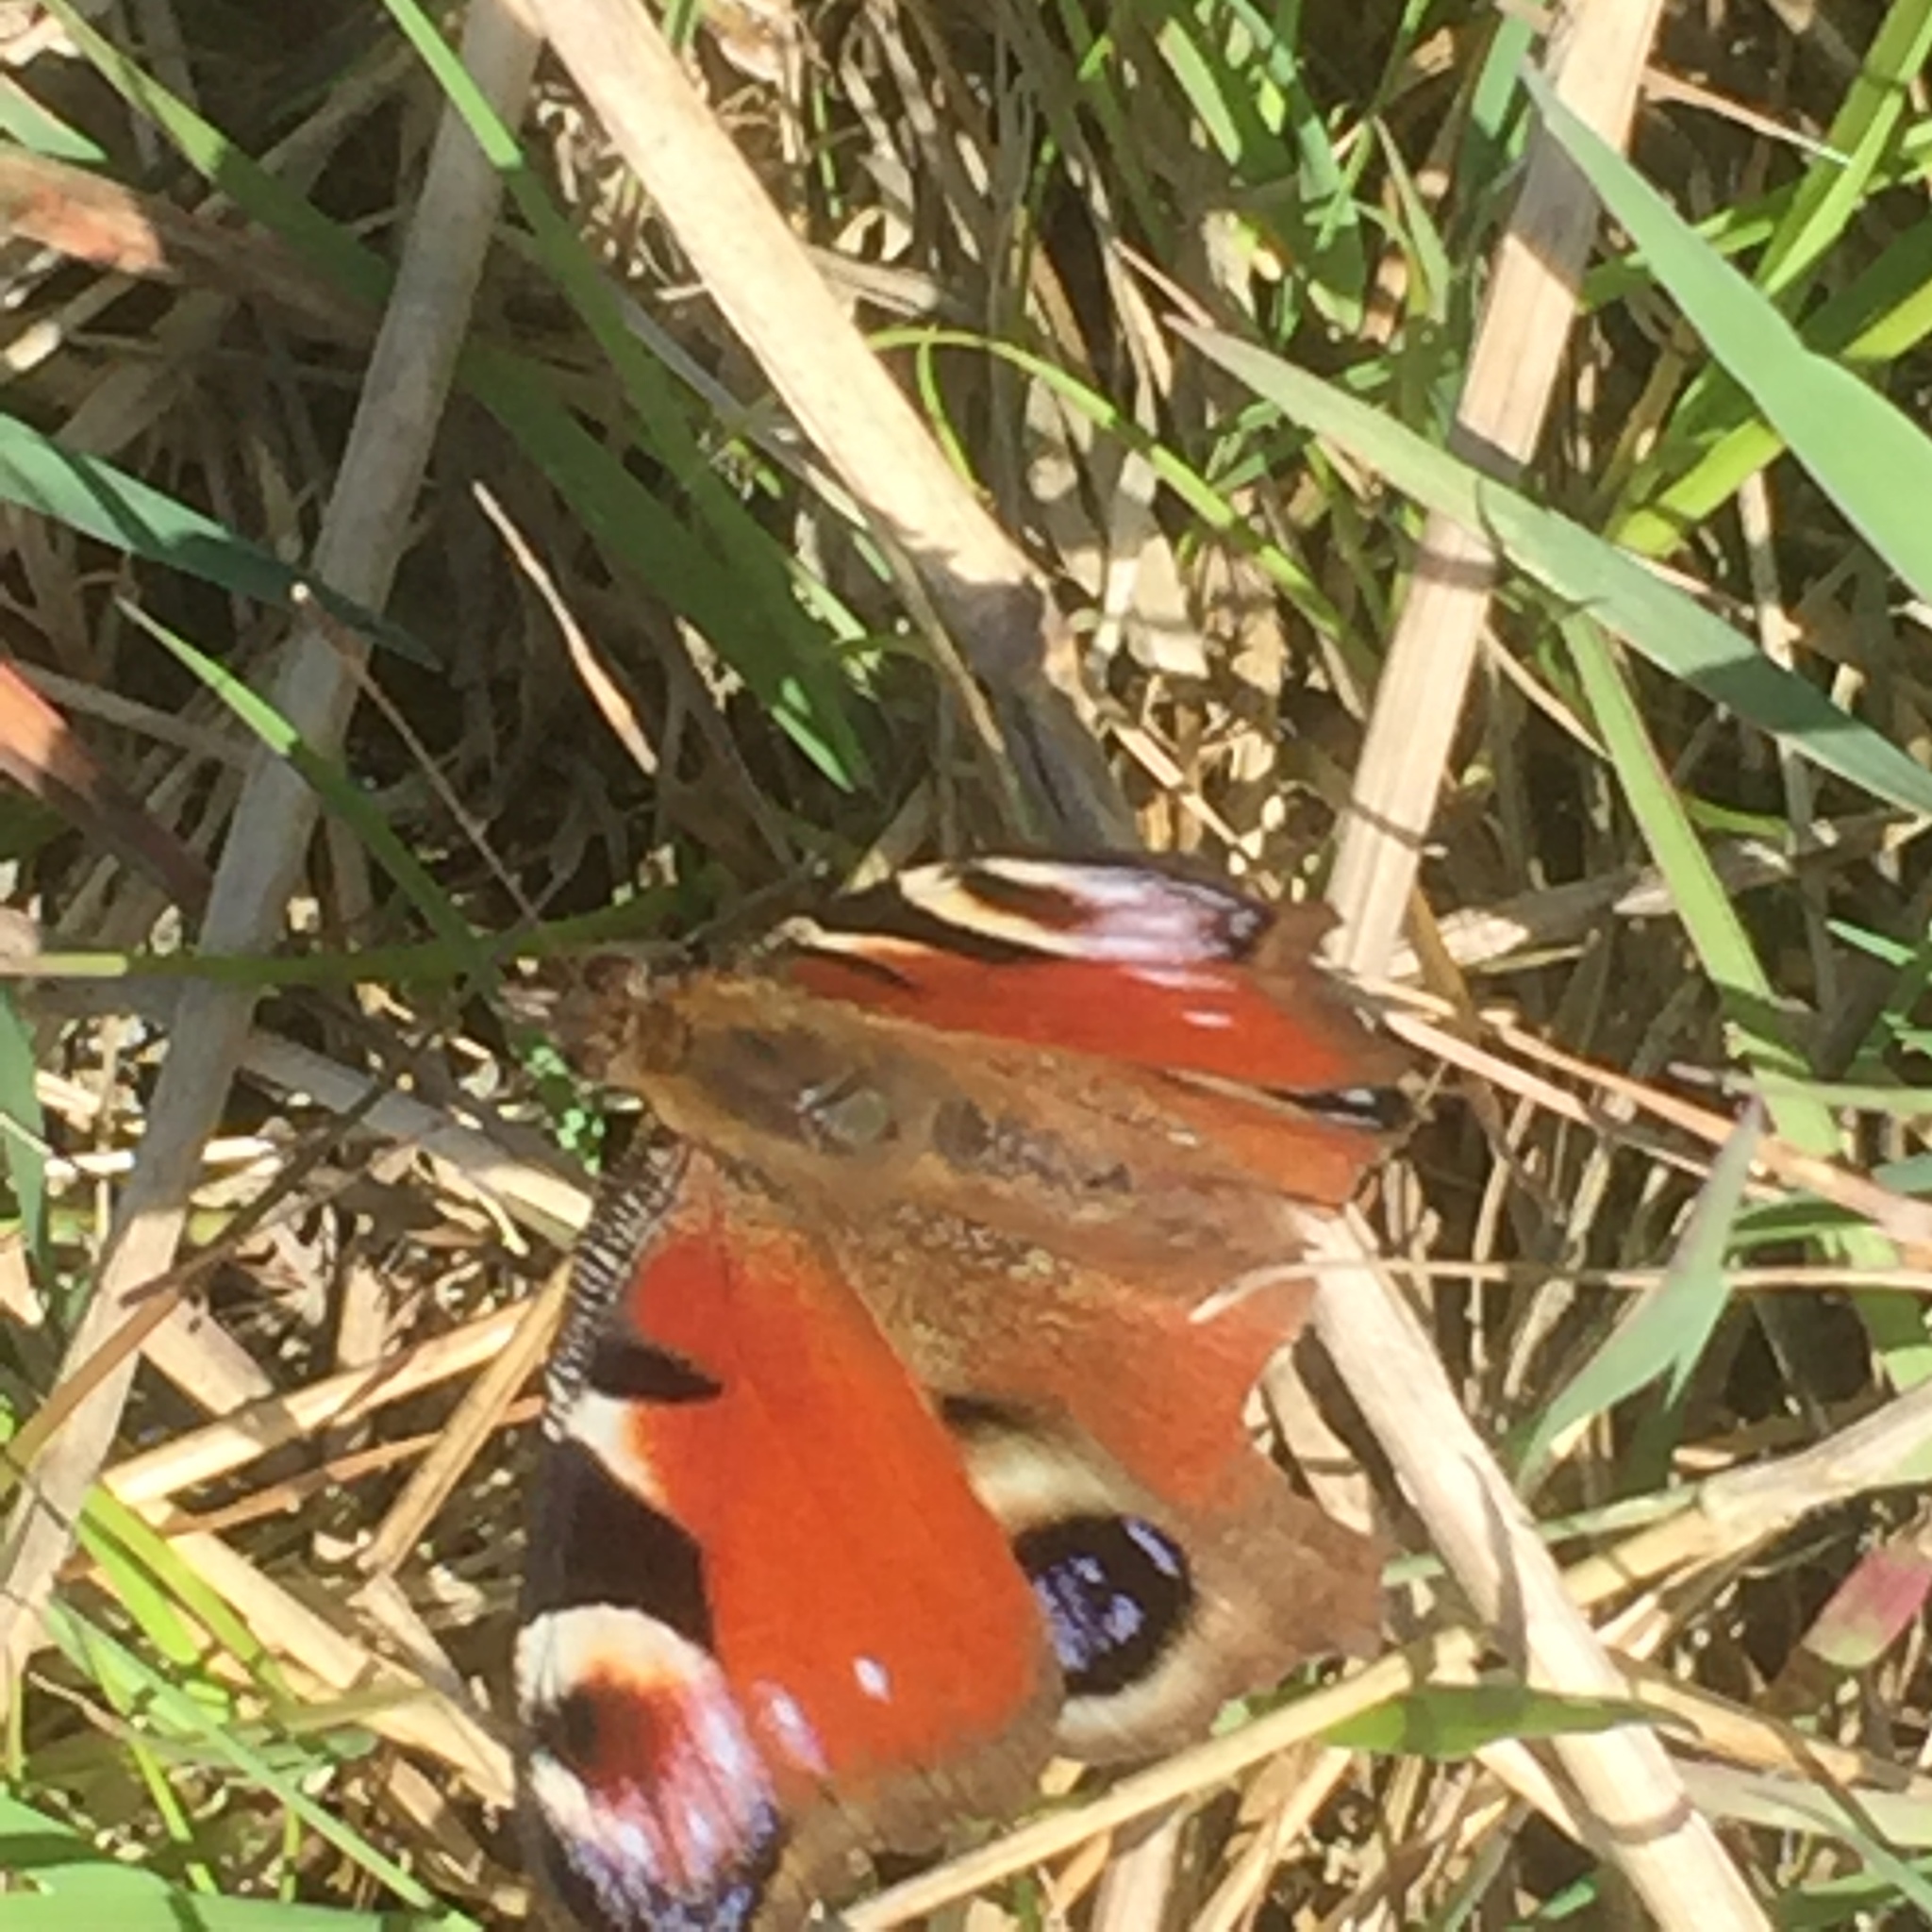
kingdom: Animalia
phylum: Arthropoda
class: Insecta
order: Lepidoptera
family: Nymphalidae
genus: Aglais
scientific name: Aglais io
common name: Peacock
